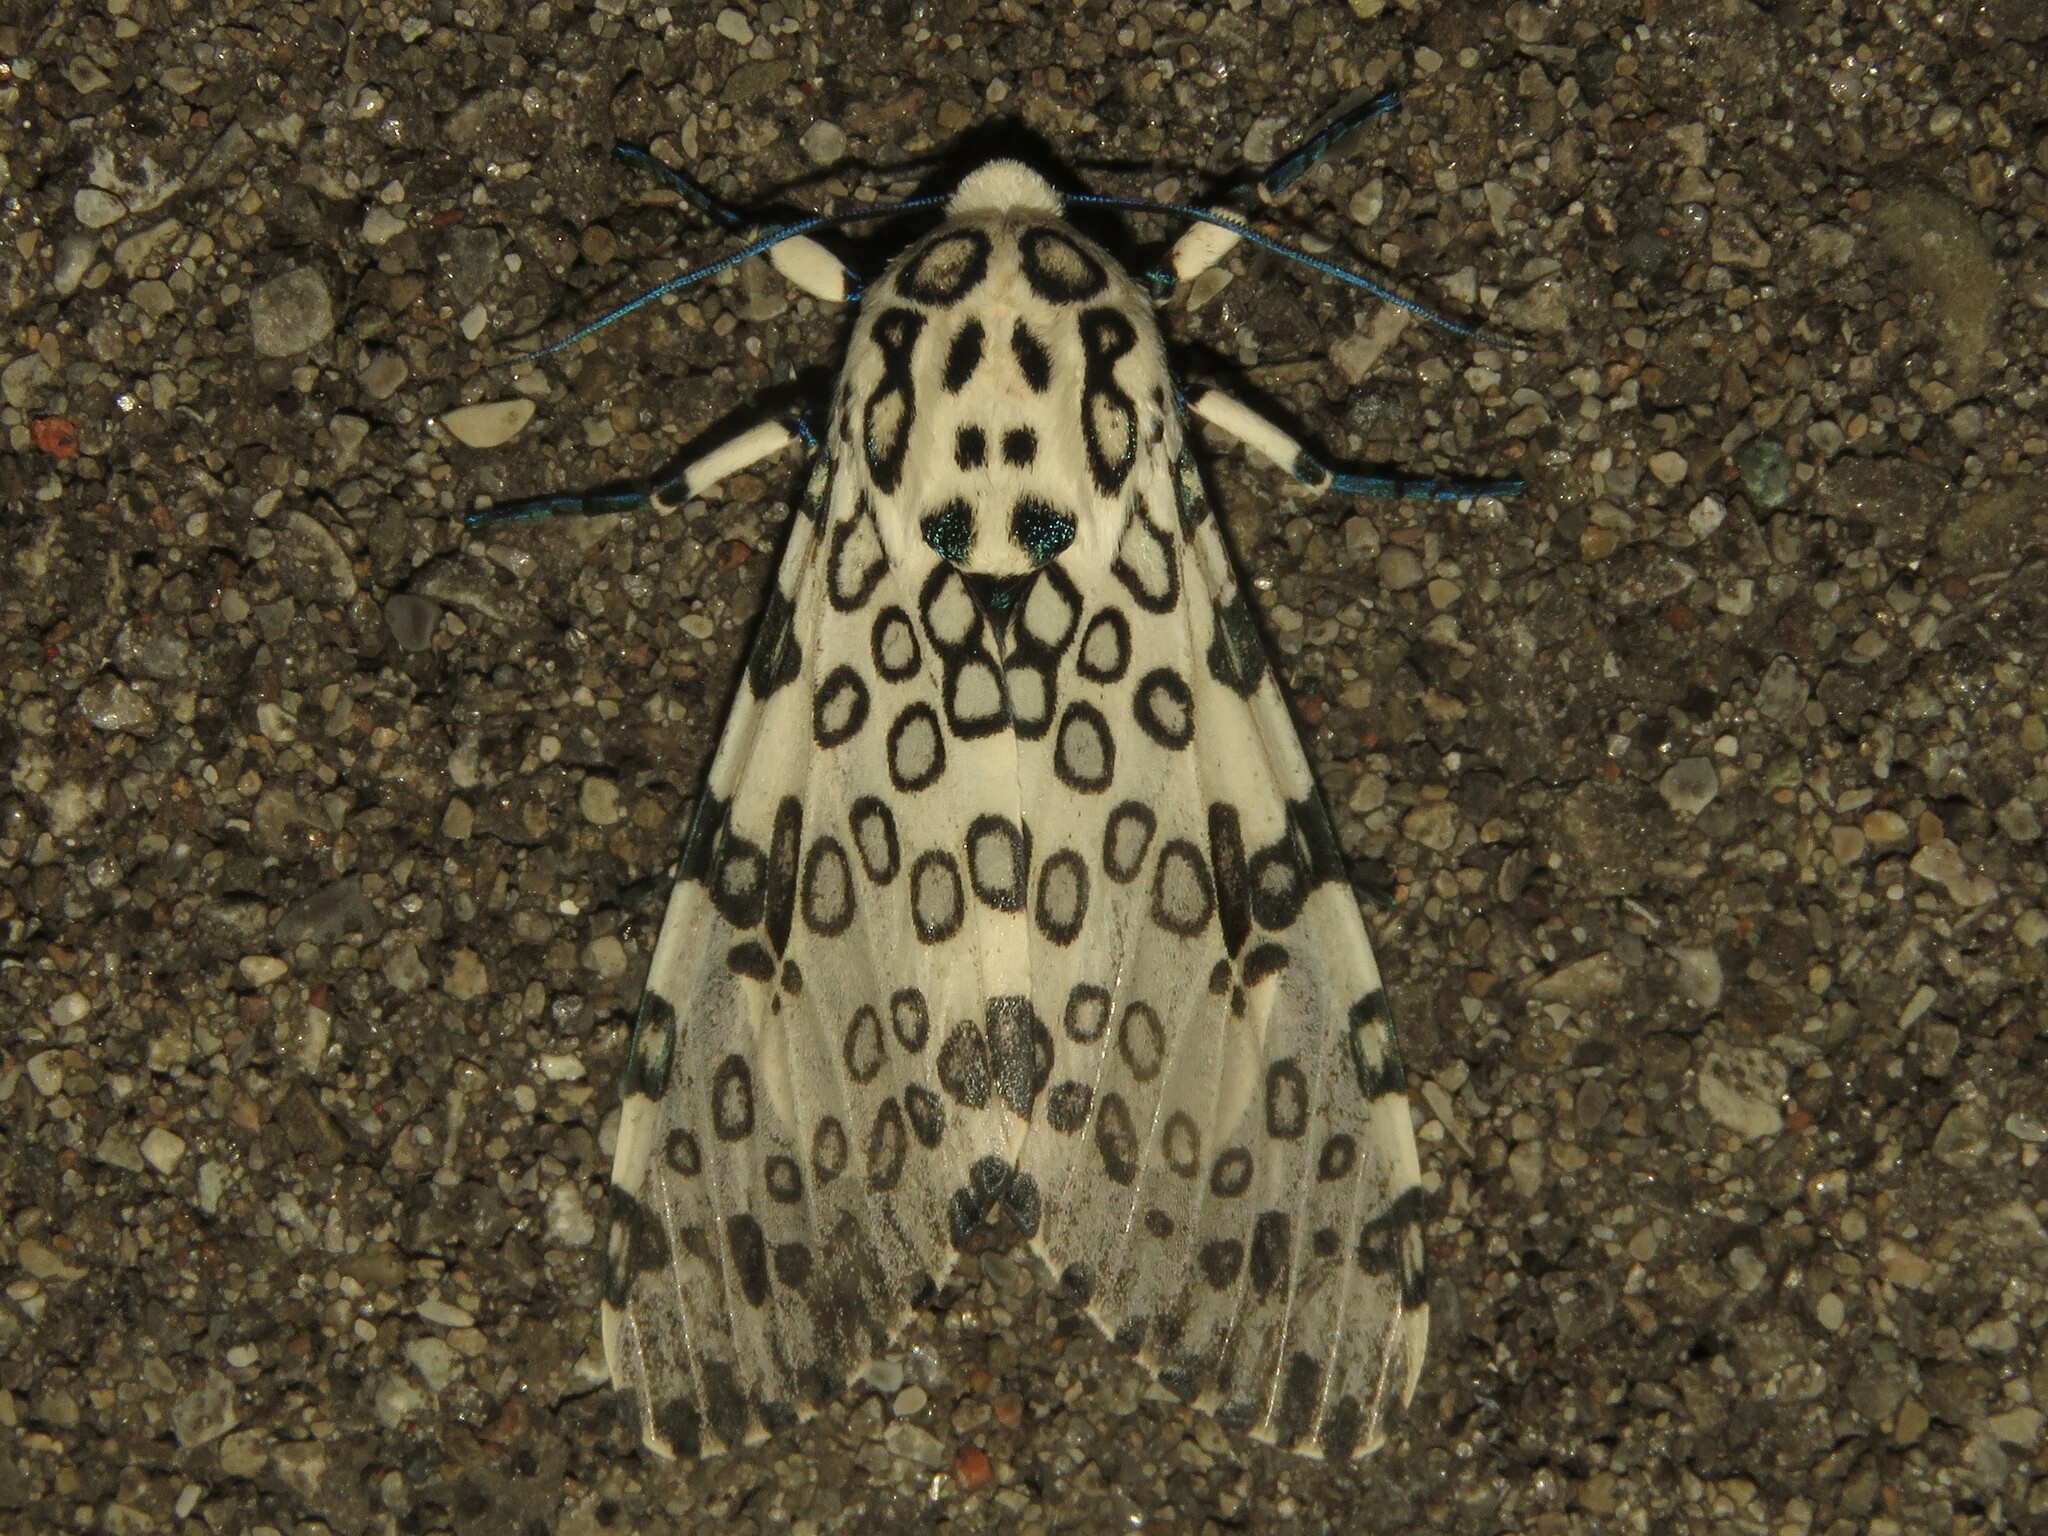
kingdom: Animalia
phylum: Arthropoda
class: Insecta
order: Lepidoptera
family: Erebidae
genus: Hypercompe
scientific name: Hypercompe scribonia
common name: Giant leopard moth
